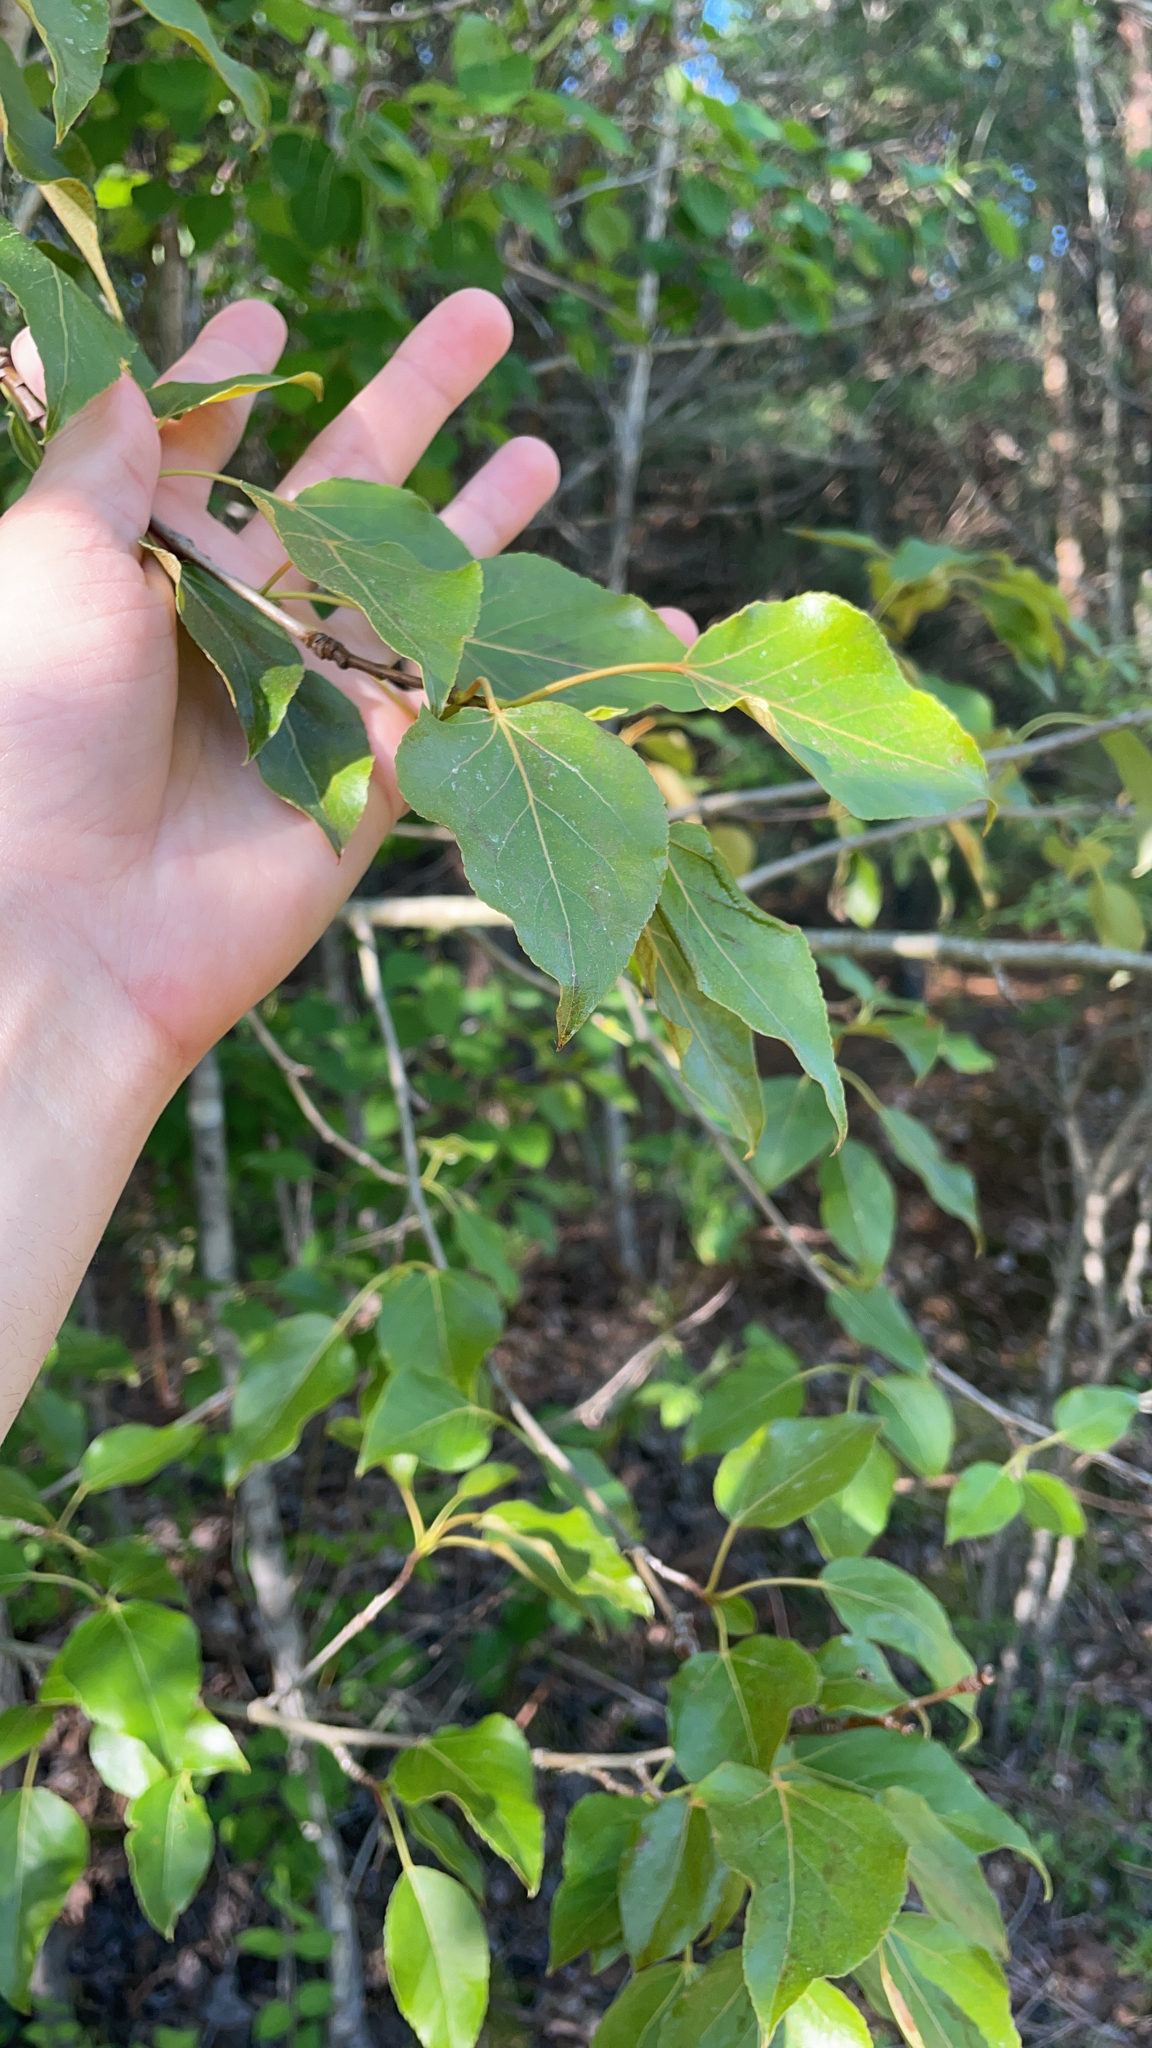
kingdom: Plantae
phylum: Tracheophyta
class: Magnoliopsida
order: Malpighiales
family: Salicaceae
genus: Populus
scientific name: Populus balsamifera
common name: Balsam poplar
